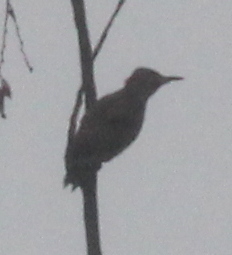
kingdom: Animalia
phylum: Chordata
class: Aves
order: Piciformes
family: Picidae
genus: Colaptes
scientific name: Colaptes auratus
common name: Northern flicker
